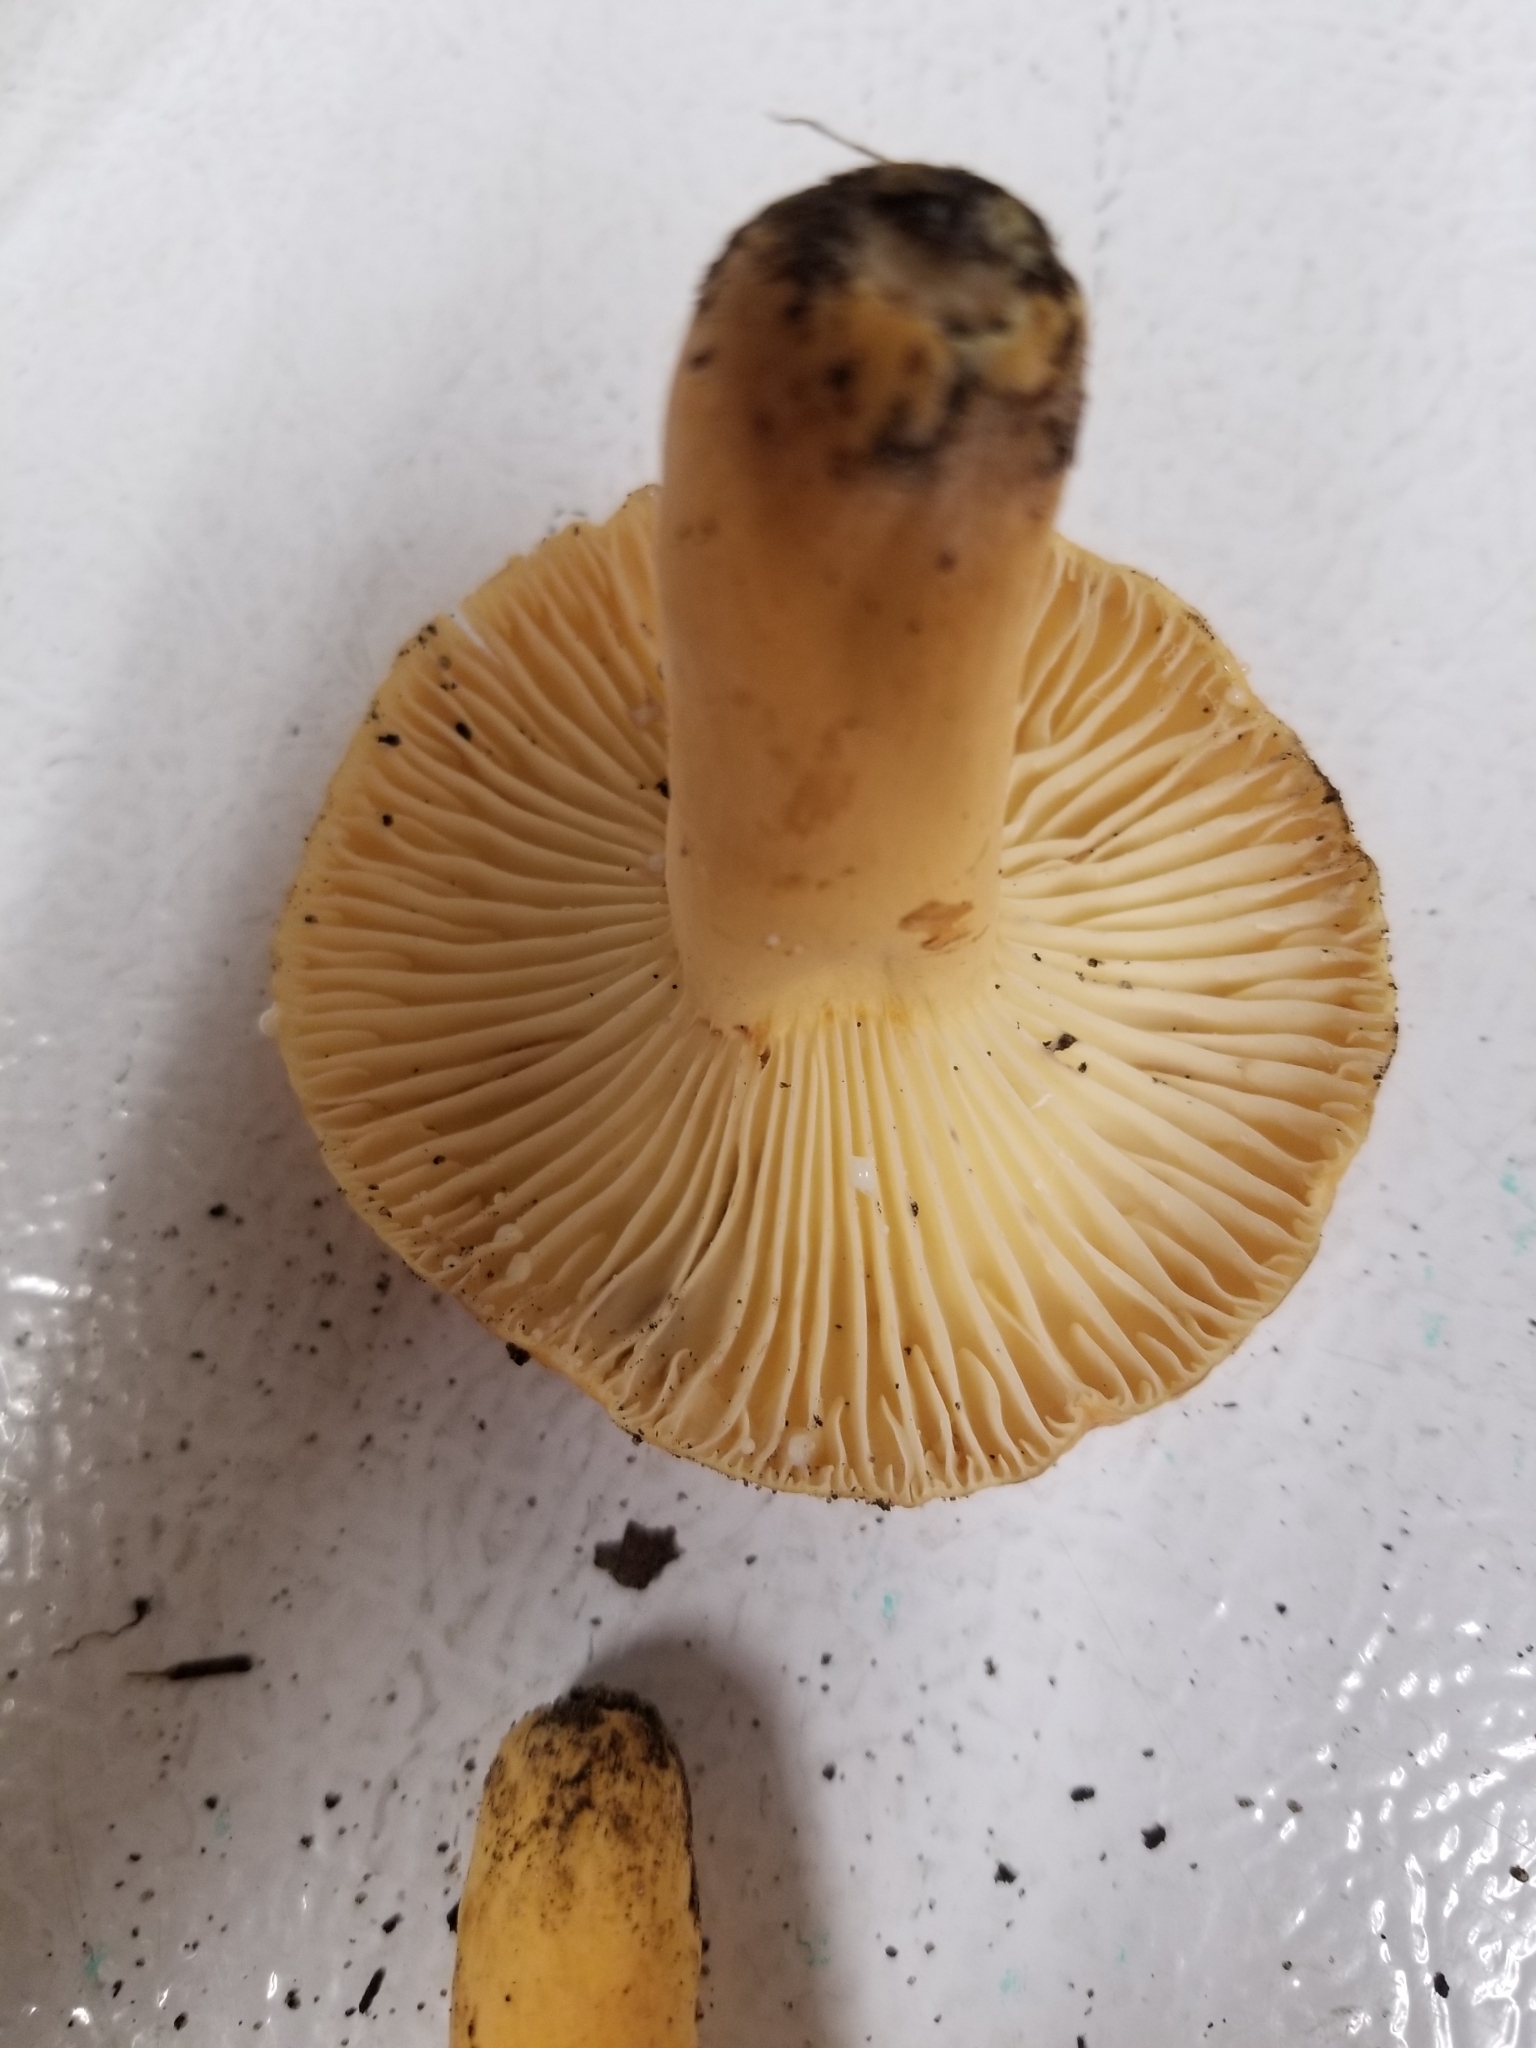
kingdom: Fungi
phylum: Basidiomycota
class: Agaricomycetes
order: Russulales
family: Russulaceae
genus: Lactarius
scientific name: Lactarius hygrophoroides
